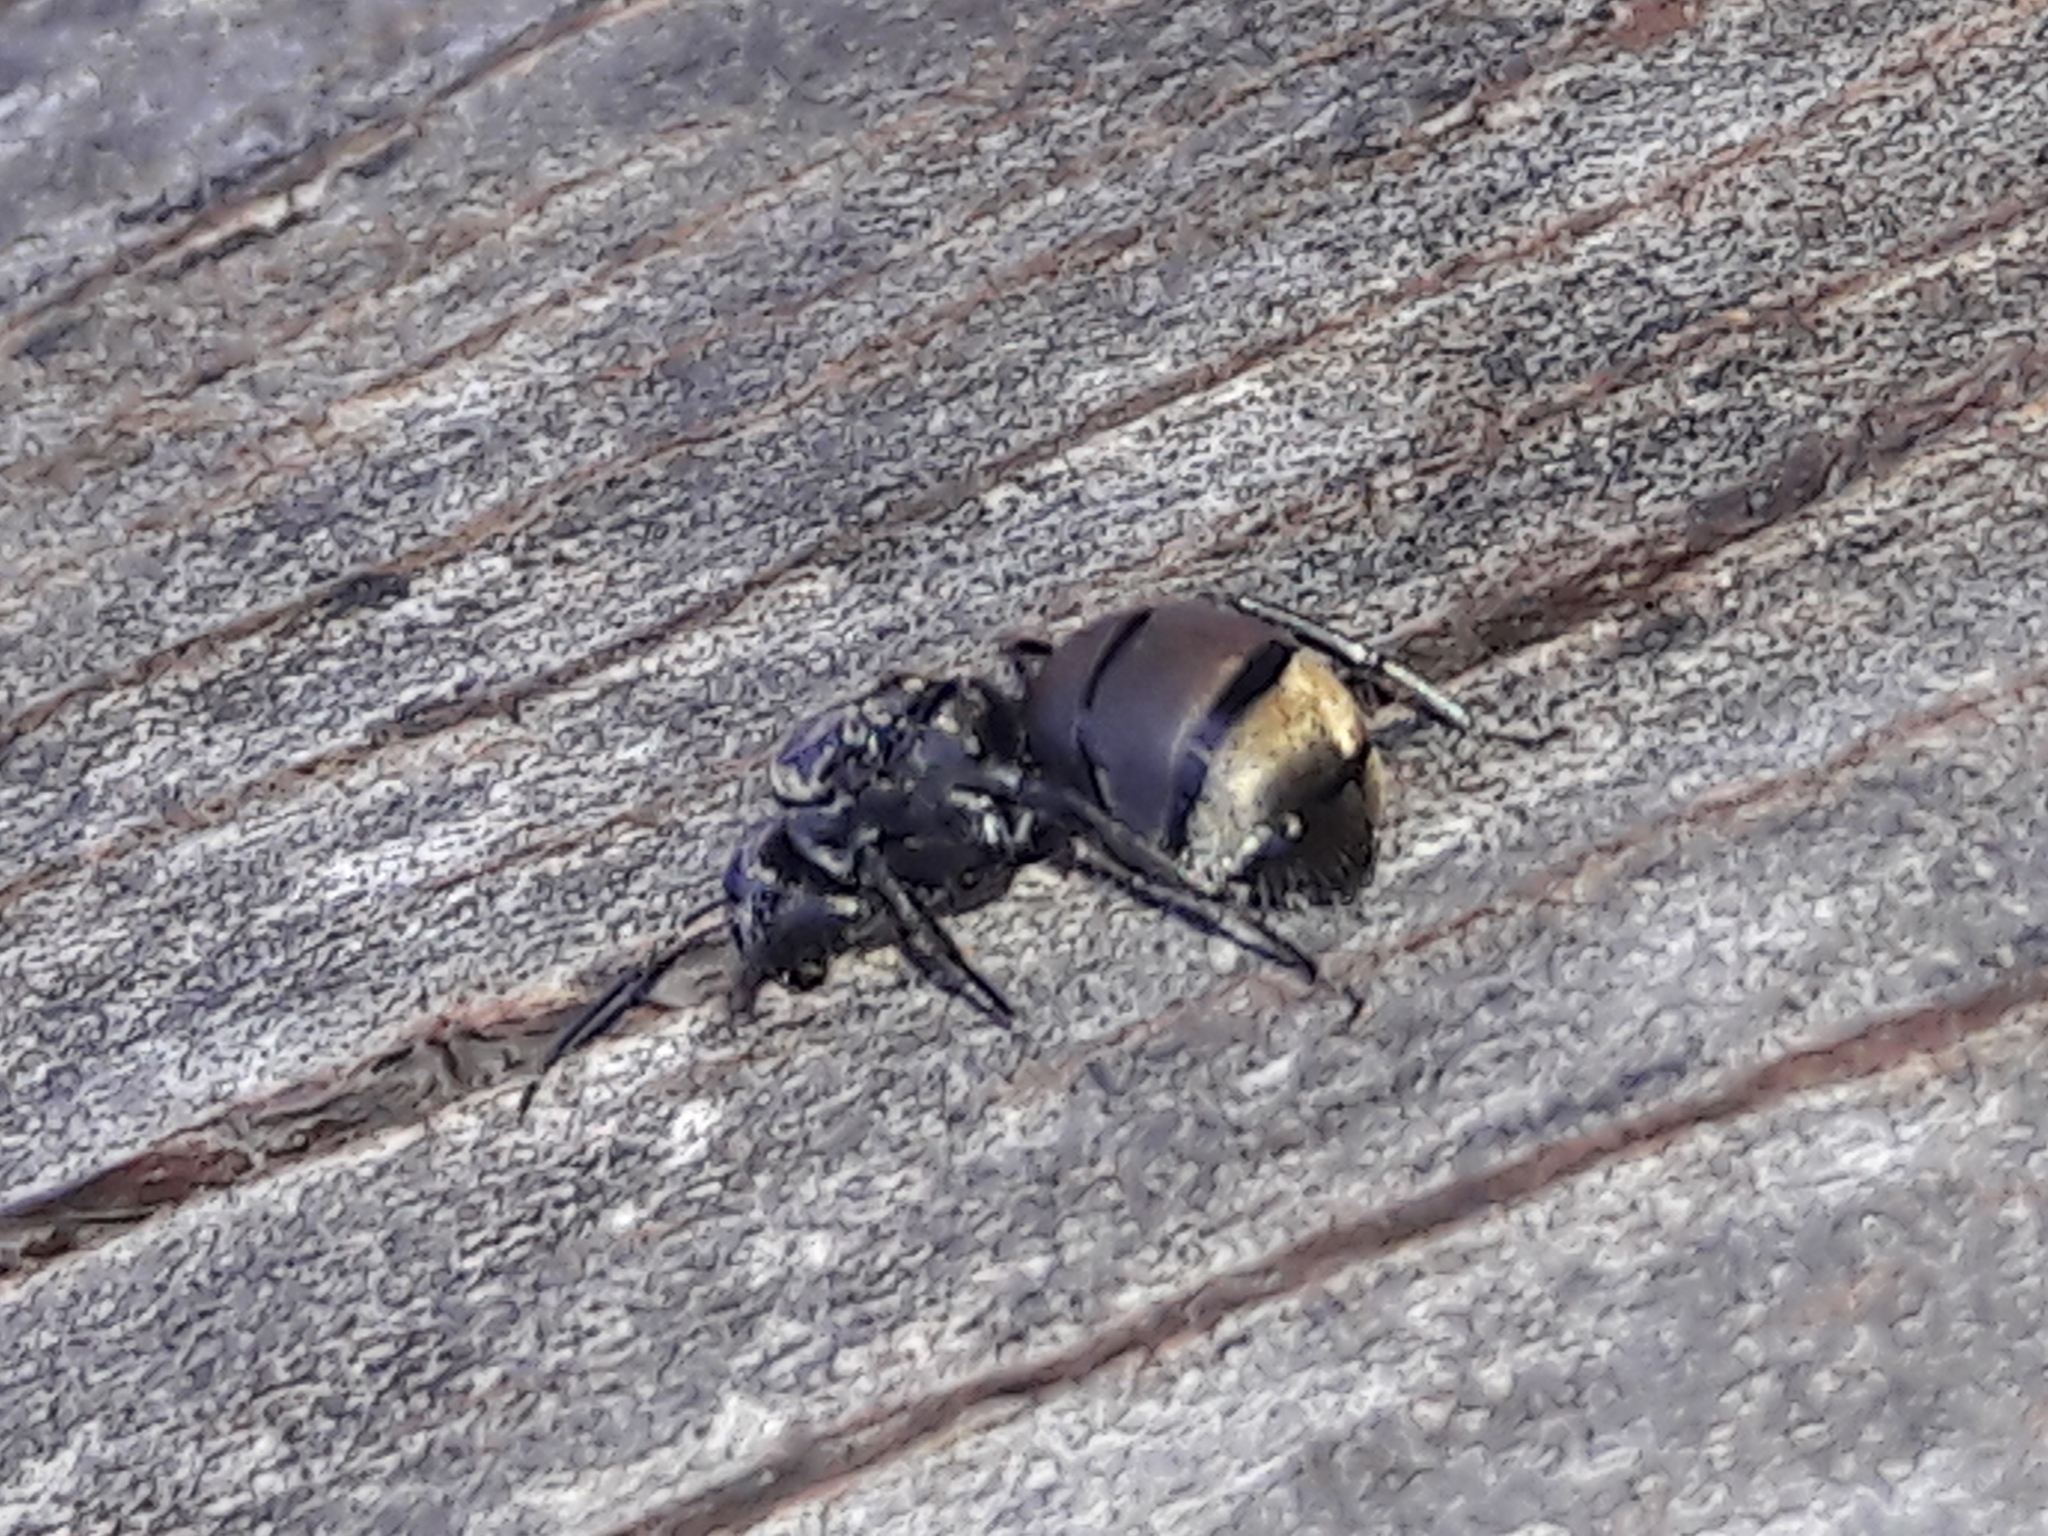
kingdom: Animalia
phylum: Arthropoda
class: Insecta
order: Hymenoptera
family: Formicidae
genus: Camponotus
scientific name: Camponotus arboreus
